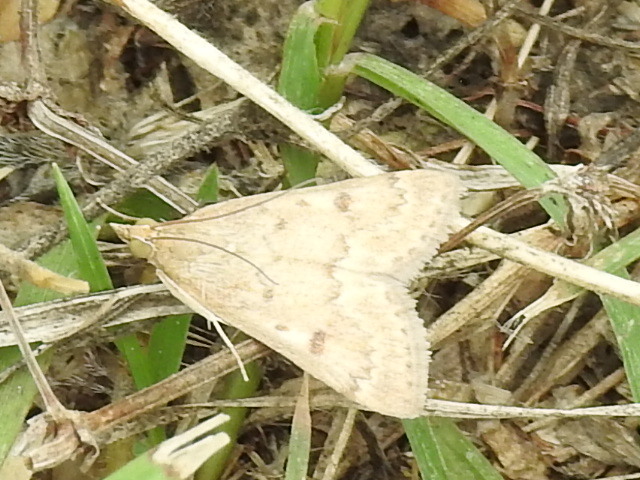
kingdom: Animalia
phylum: Arthropoda
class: Insecta
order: Lepidoptera
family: Crambidae
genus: Achyra
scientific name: Achyra rantalis
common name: Garden webworm
